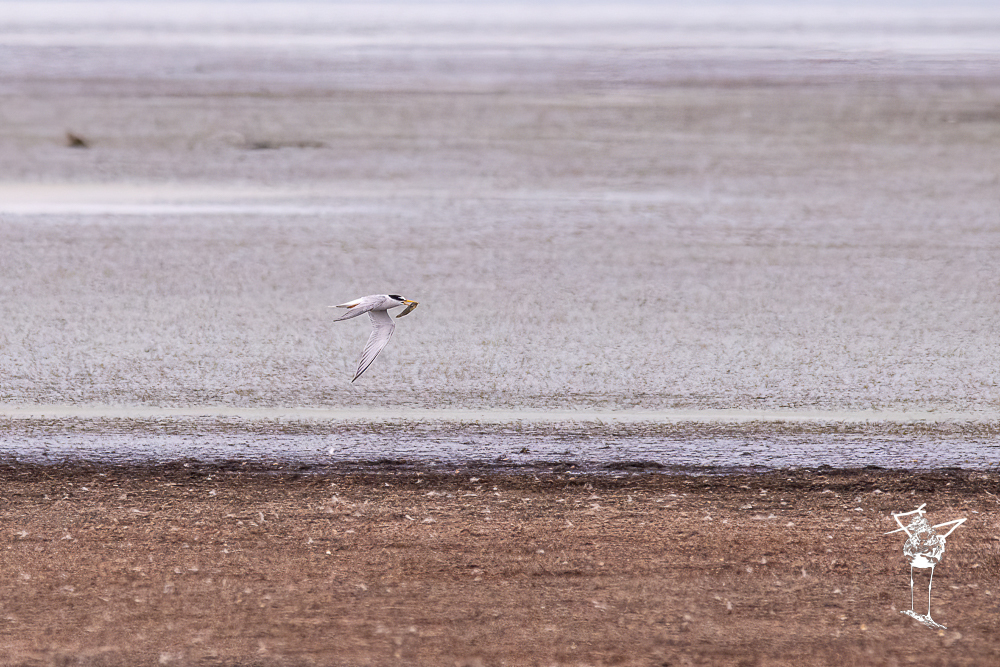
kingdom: Animalia
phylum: Chordata
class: Aves
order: Charadriiformes
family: Laridae
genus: Sternula
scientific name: Sternula albifrons
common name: Little tern
